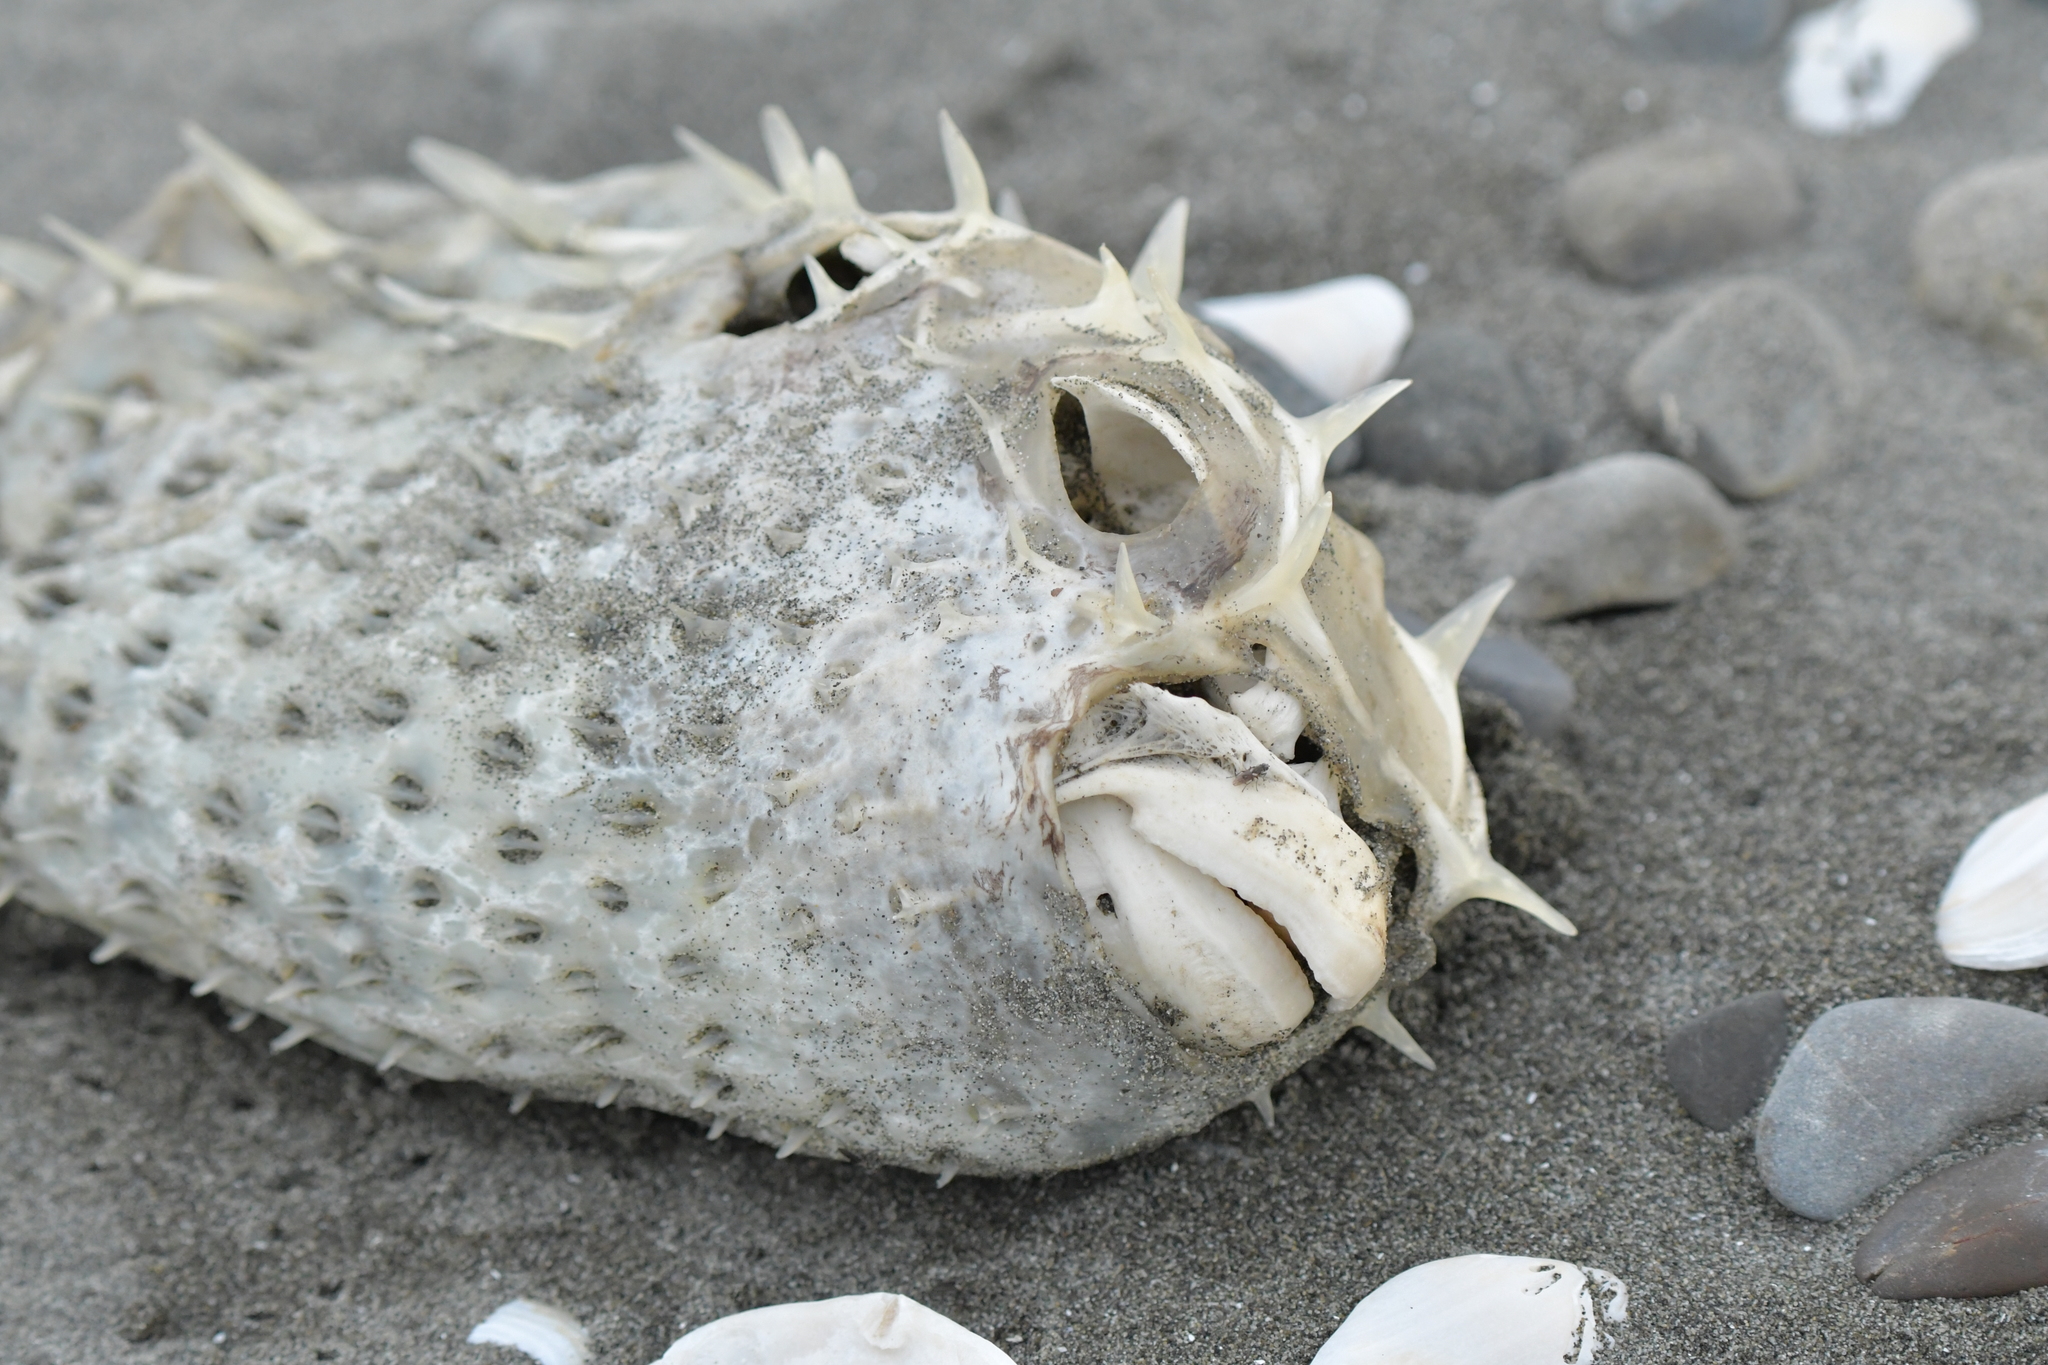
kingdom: Animalia
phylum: Chordata
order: Tetraodontiformes
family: Diodontidae
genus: Allomycterus
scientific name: Allomycterus pilatus
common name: No common name
